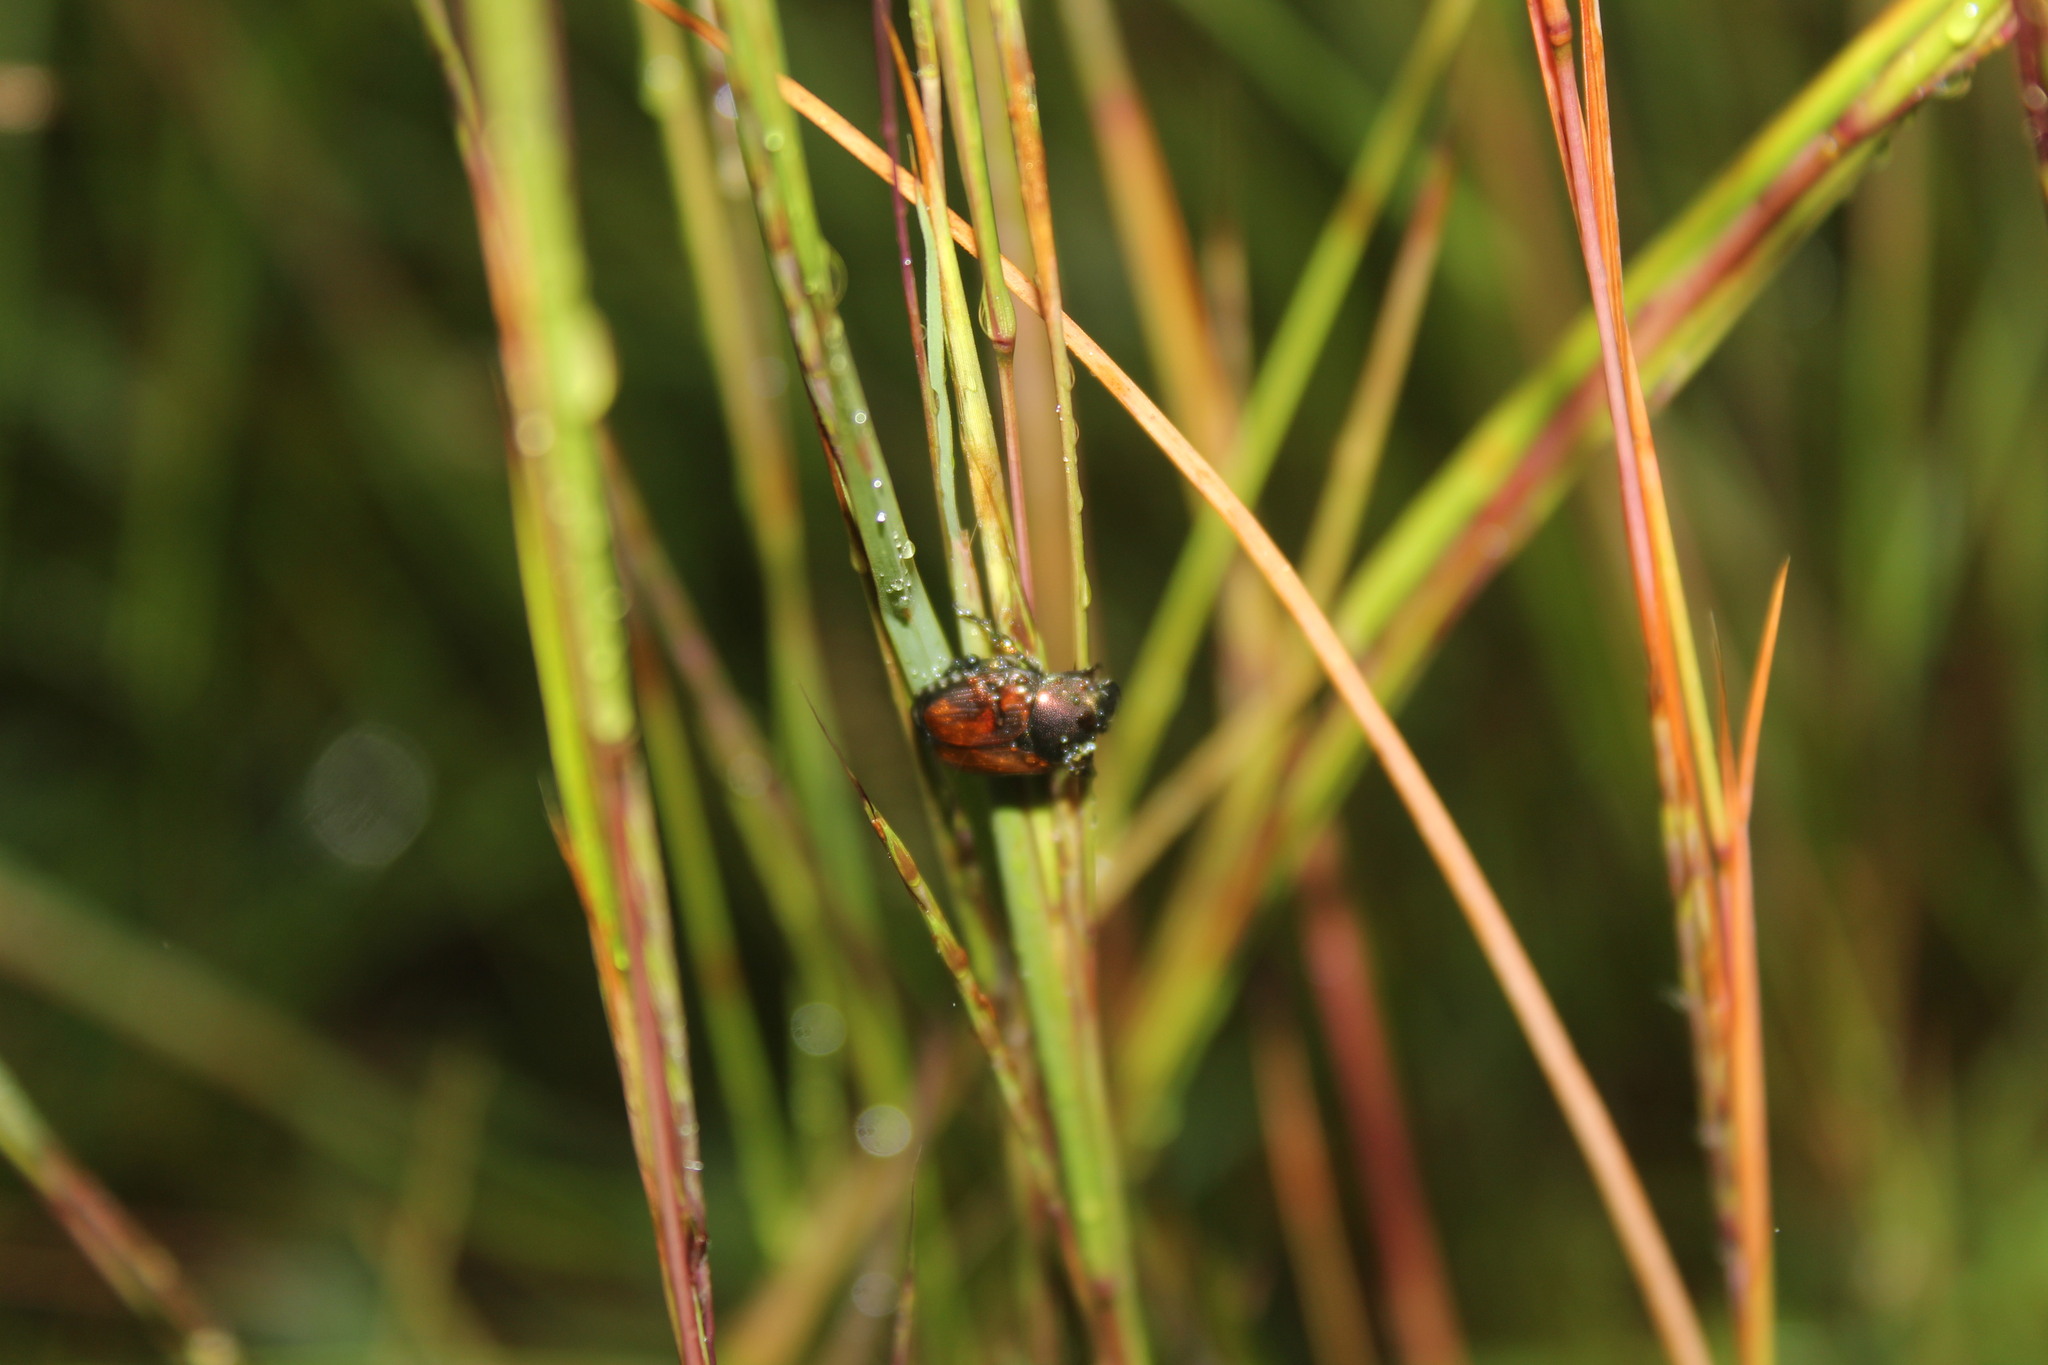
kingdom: Animalia
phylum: Arthropoda
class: Insecta
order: Coleoptera
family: Scarabaeidae
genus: Popillia
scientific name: Popillia japonica
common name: Japanese beetle
